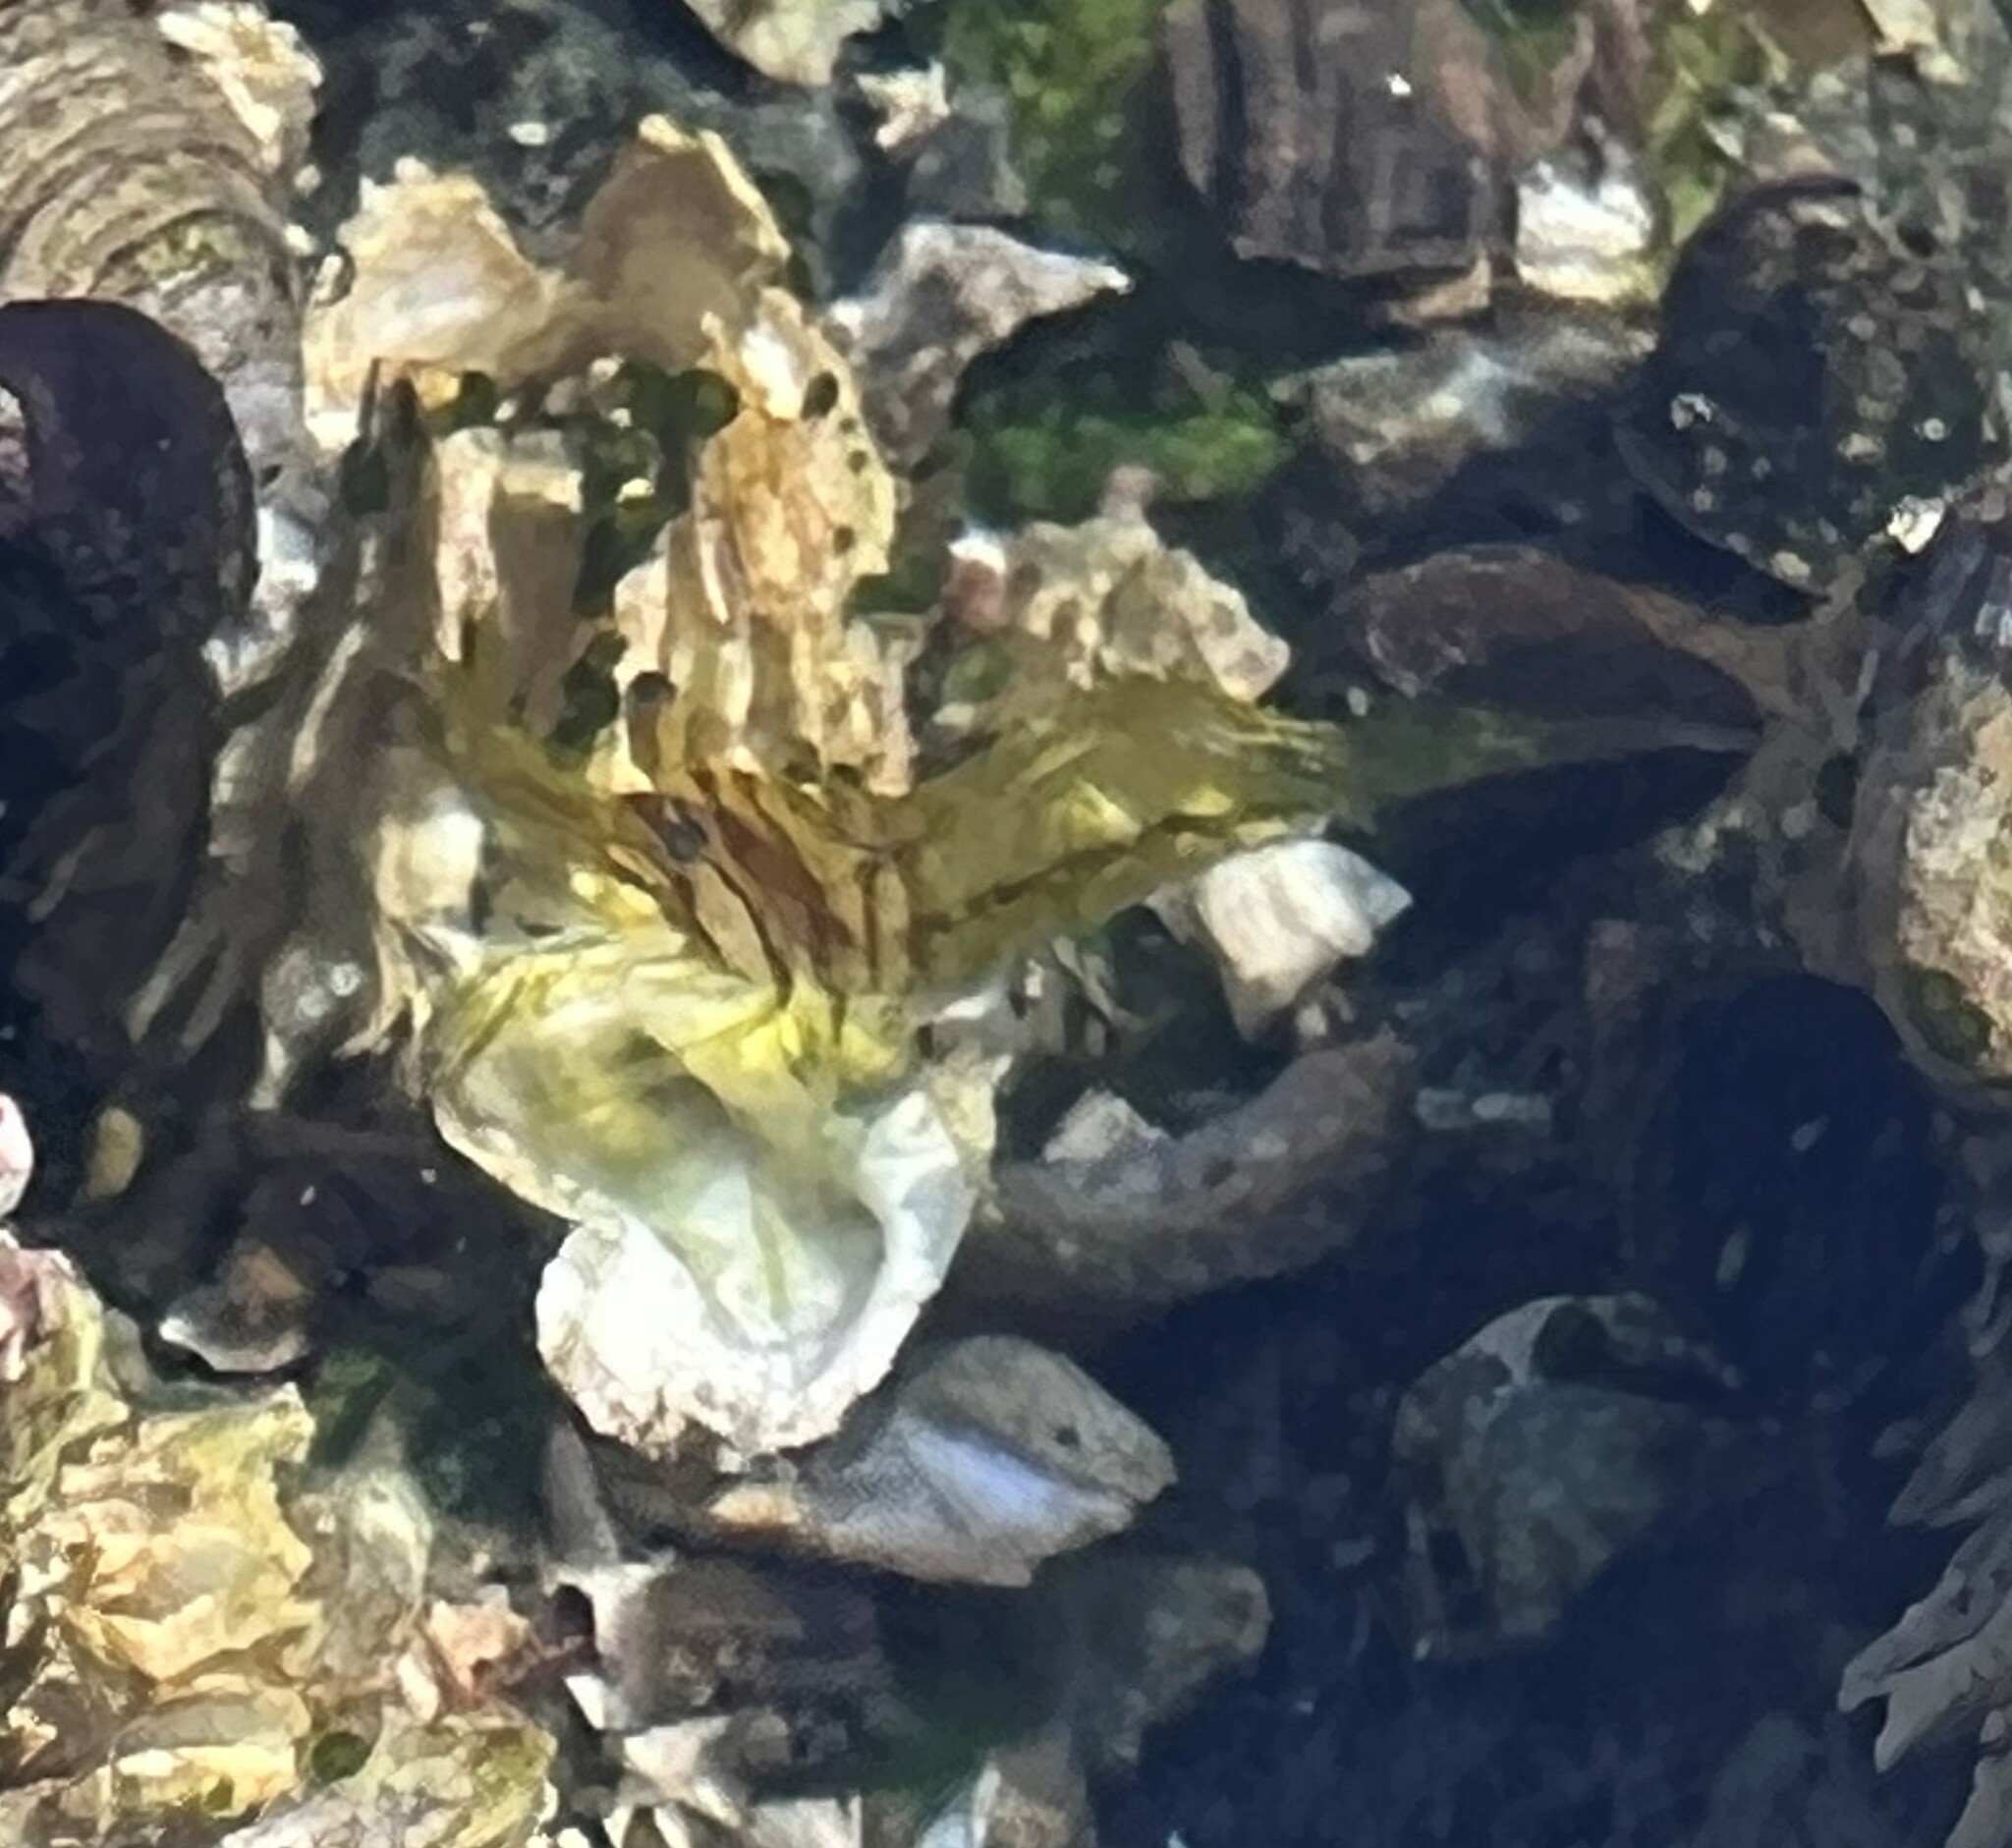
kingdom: Animalia
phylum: Arthropoda
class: Malacostraca
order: Decapoda
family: Thoridae
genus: Heptacarpus
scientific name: Heptacarpus sitchensis
